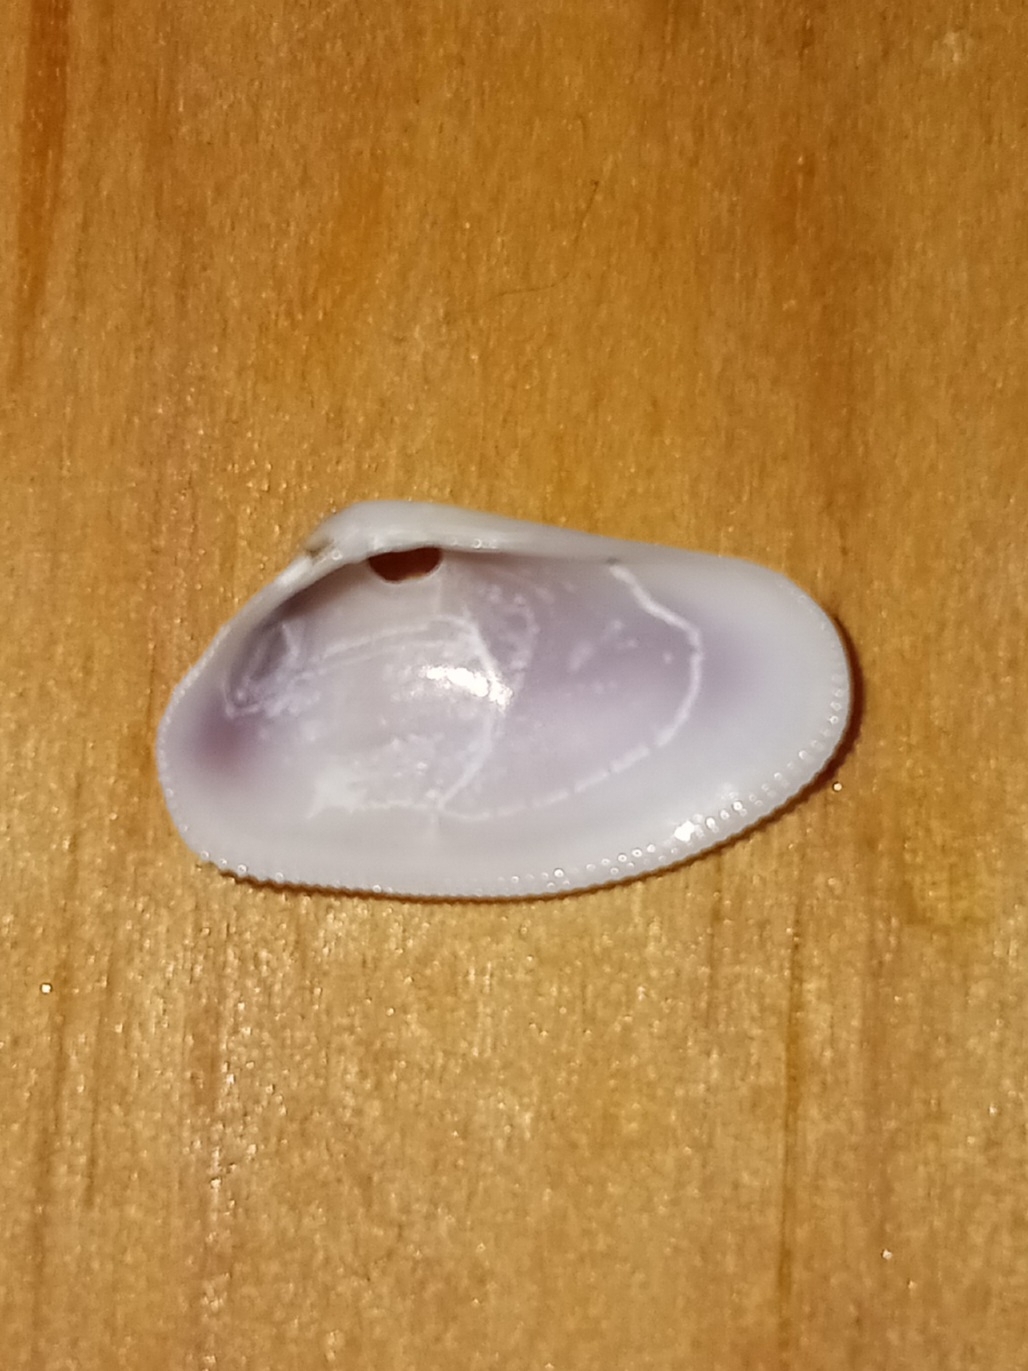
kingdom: Animalia
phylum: Mollusca
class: Bivalvia
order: Cardiida
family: Donacidae
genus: Donax
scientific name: Donax variabilis
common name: Butterfly shell
